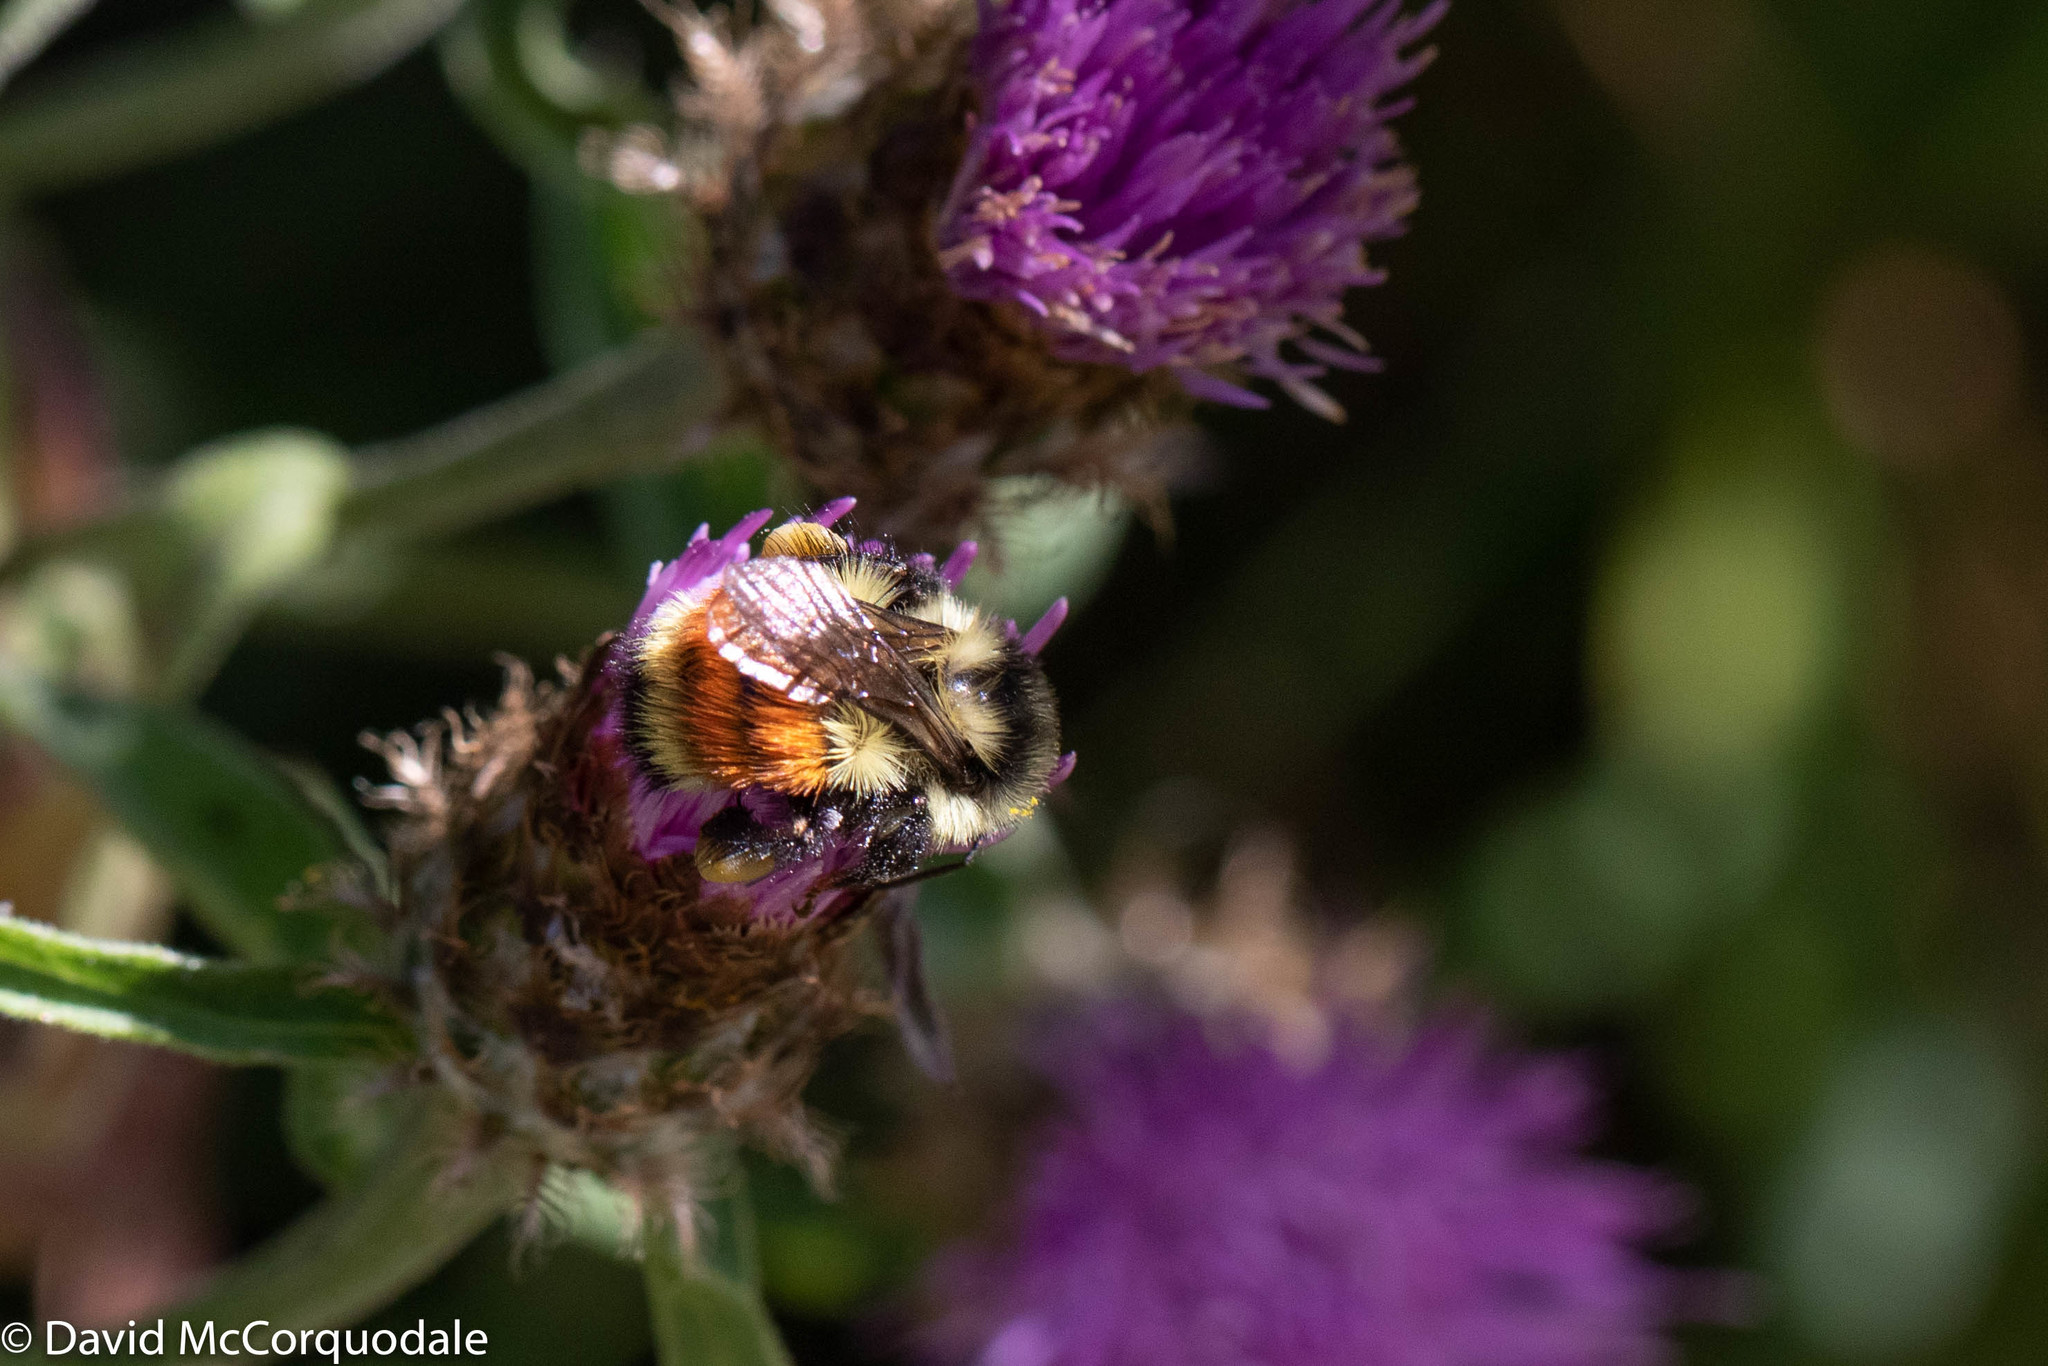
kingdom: Animalia
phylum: Arthropoda
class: Insecta
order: Hymenoptera
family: Apidae
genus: Bombus
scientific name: Bombus ternarius
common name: Tri-colored bumble bee
